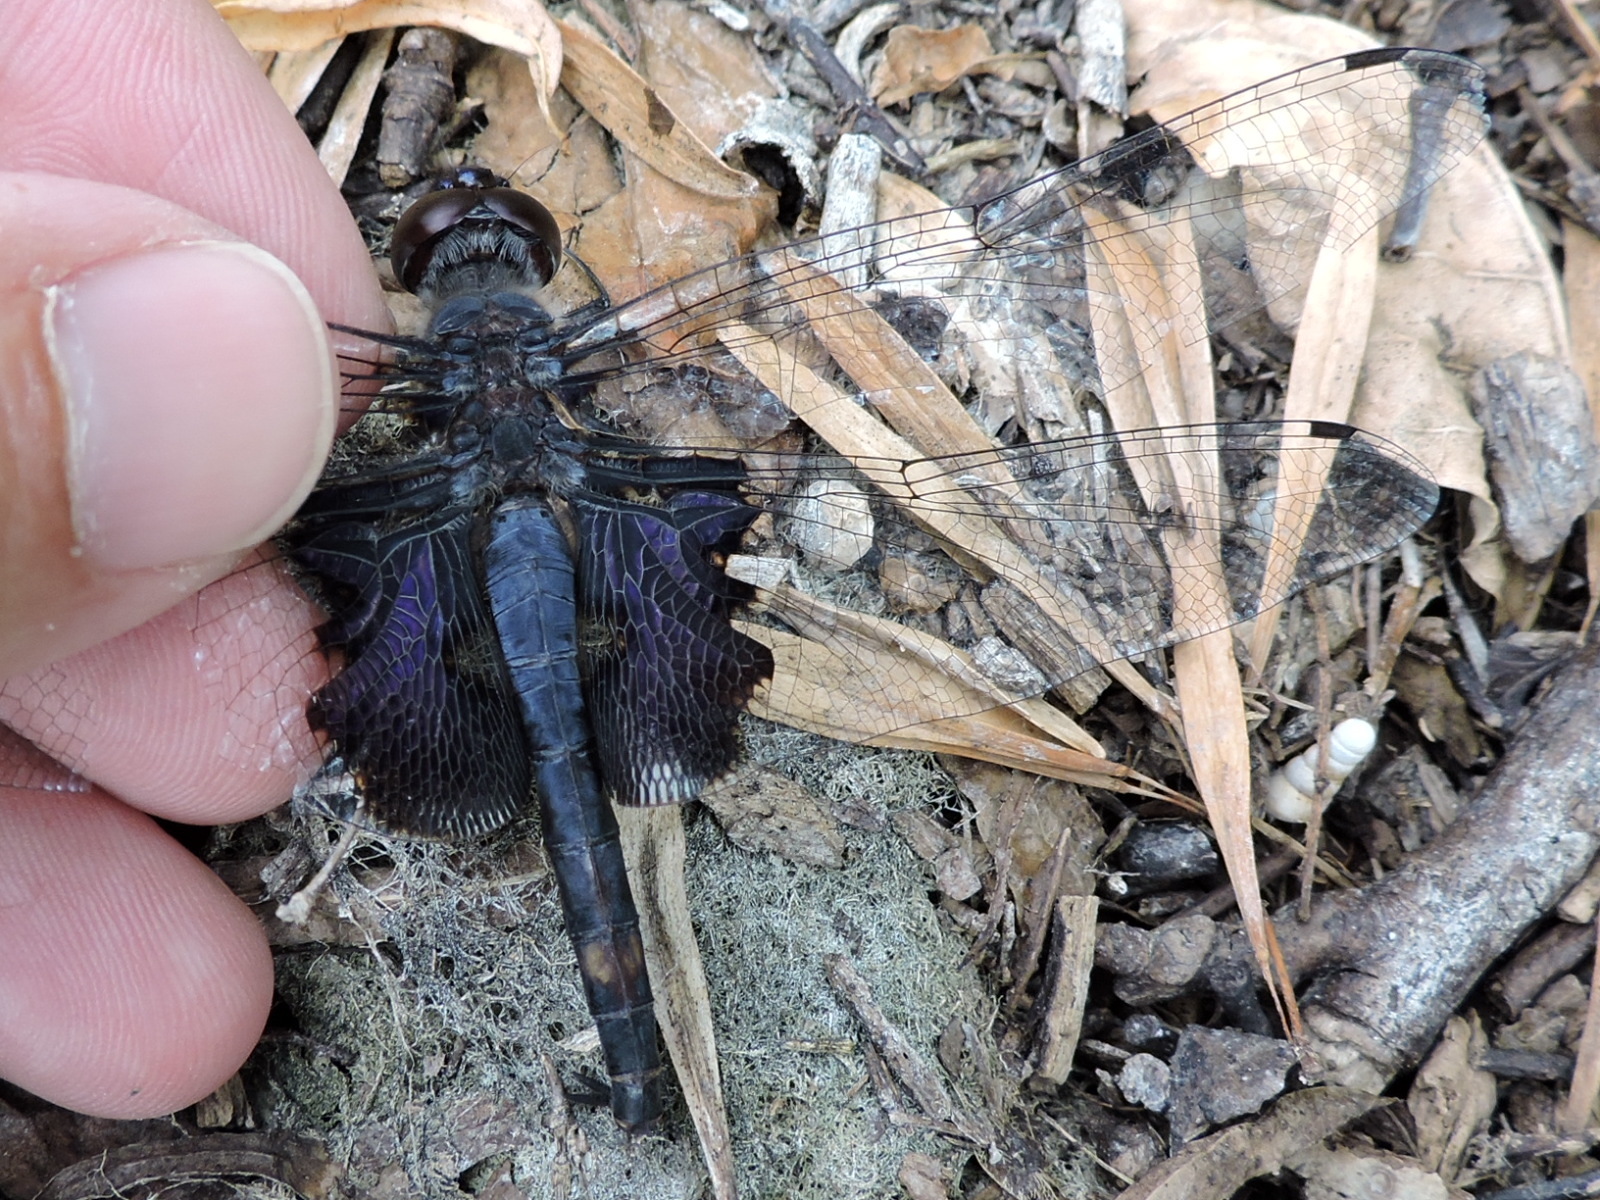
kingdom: Animalia
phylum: Arthropoda
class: Insecta
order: Odonata
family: Libellulidae
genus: Tramea
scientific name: Tramea lacerata
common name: Black saddlebags
